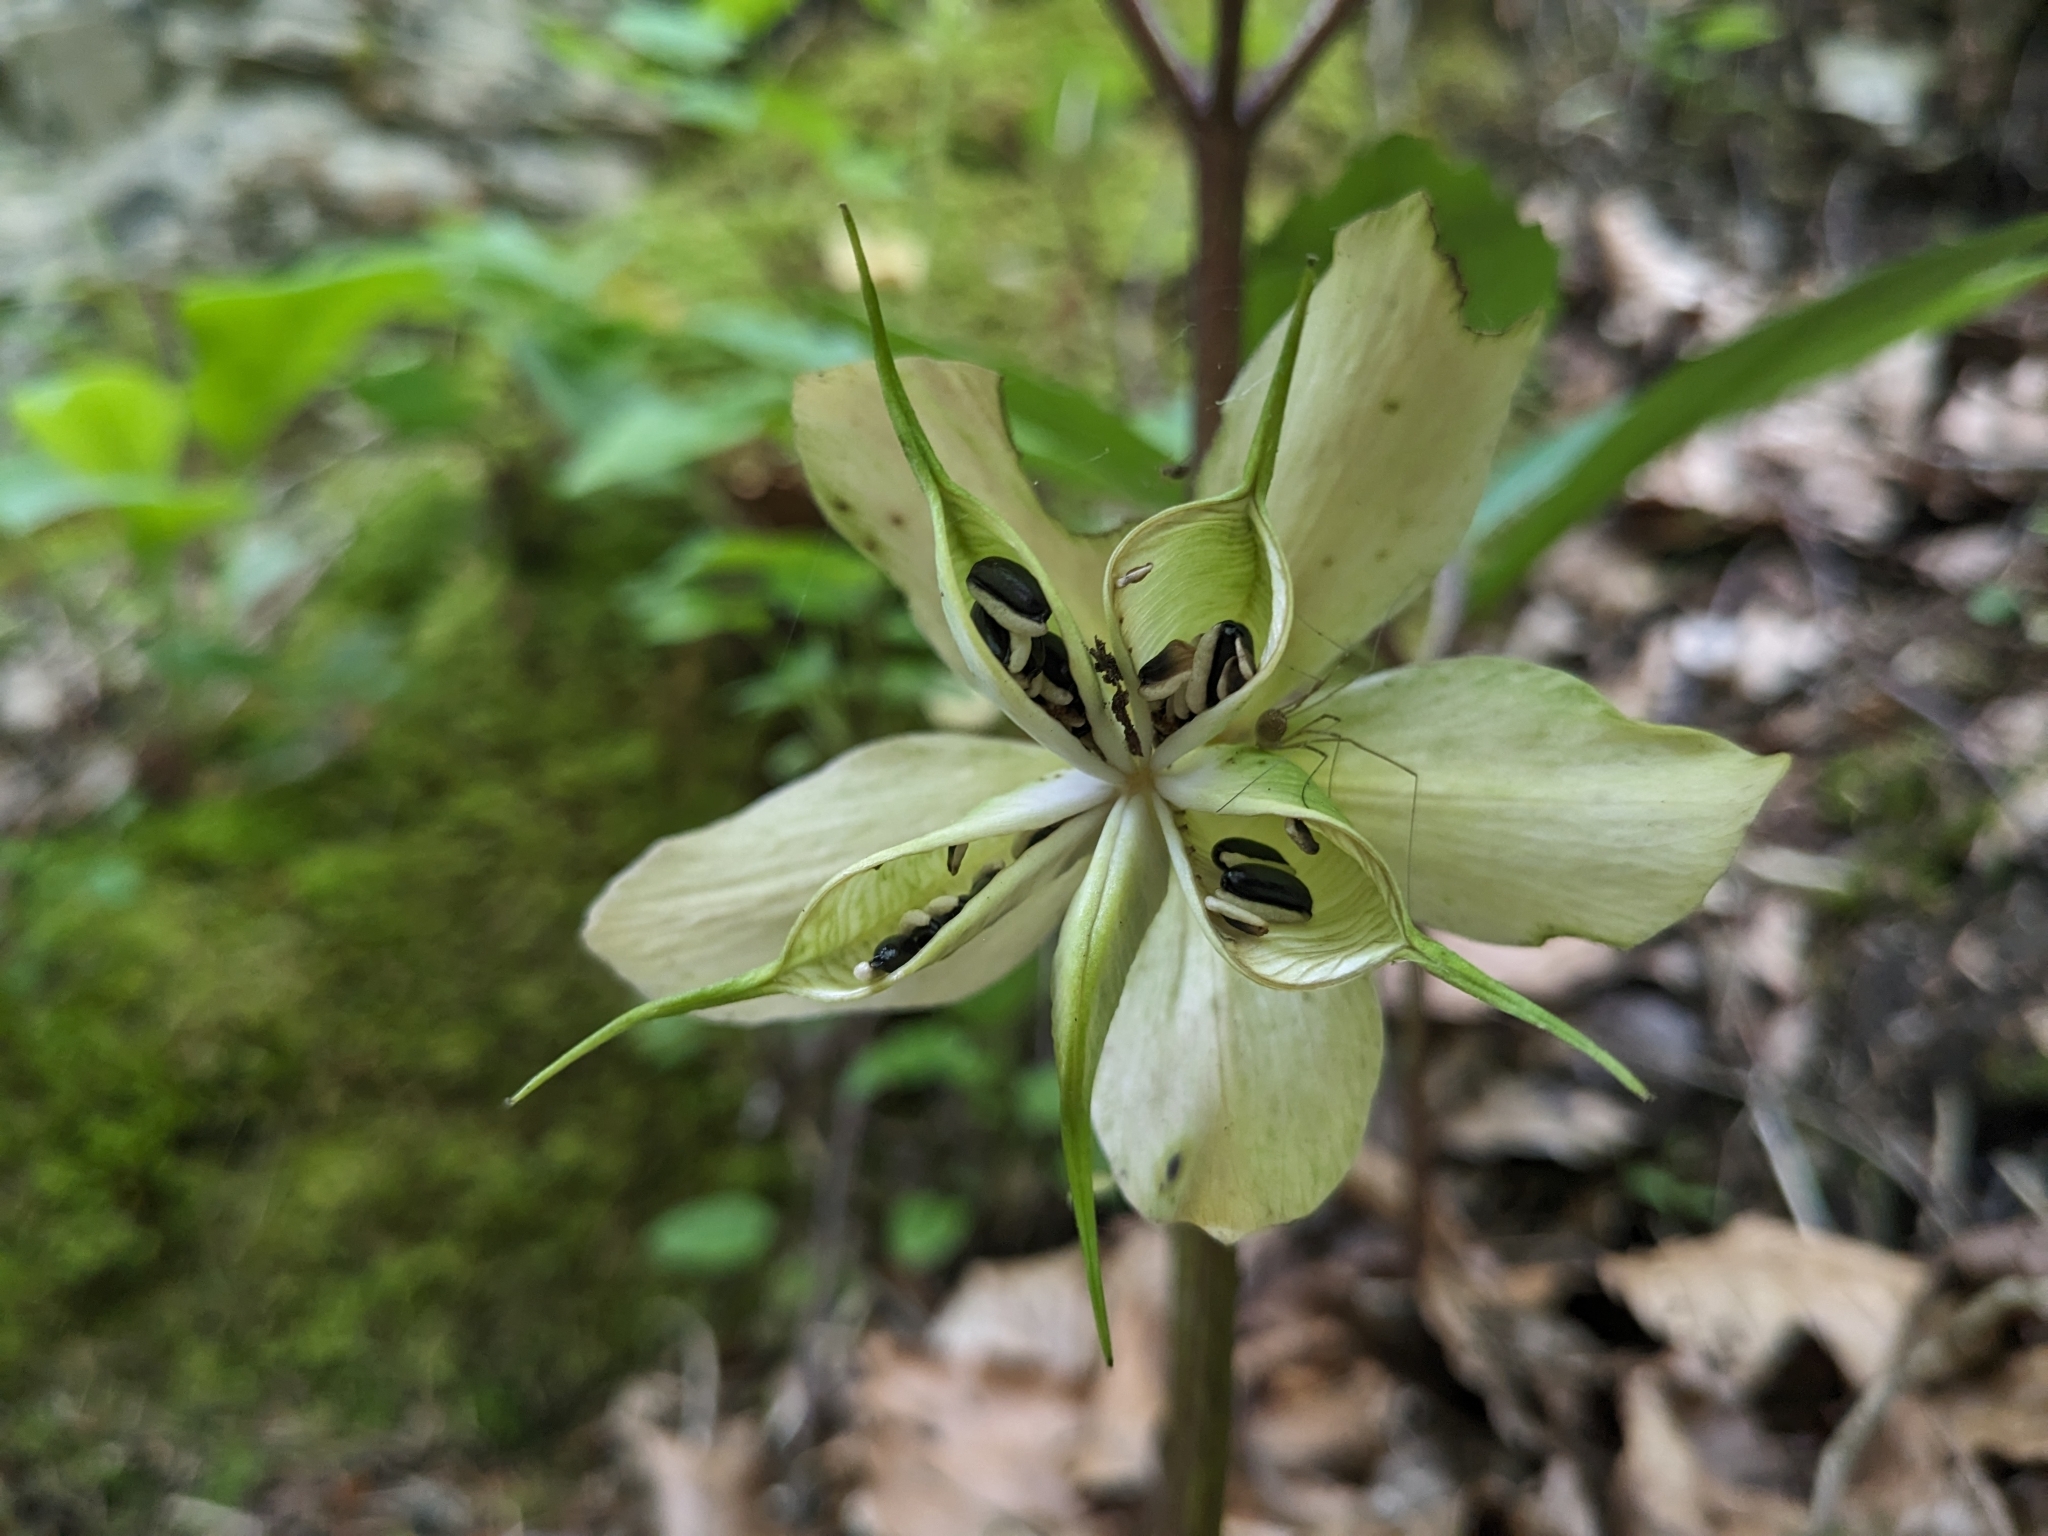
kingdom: Plantae
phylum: Tracheophyta
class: Magnoliopsida
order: Ranunculales
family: Ranunculaceae
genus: Helleborus
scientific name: Helleborus niger
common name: Black hellebore
